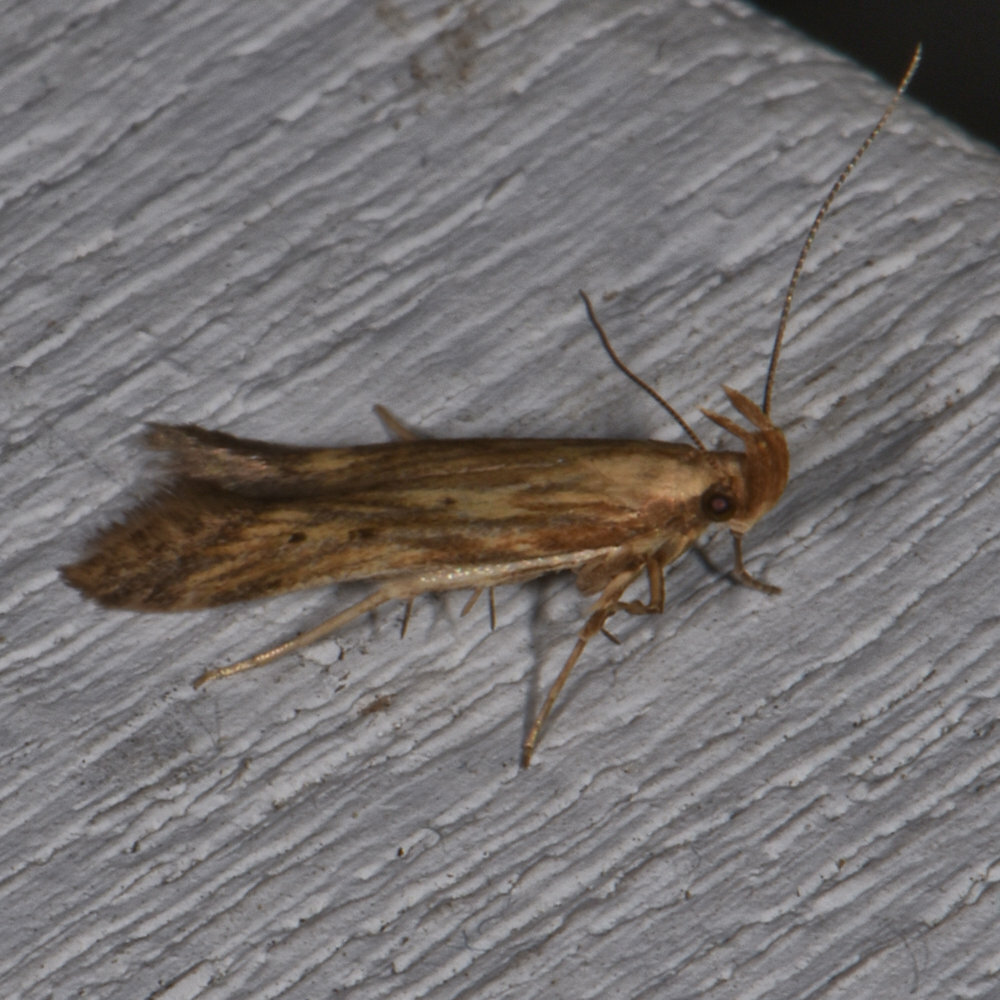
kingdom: Animalia
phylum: Arthropoda
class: Insecta
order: Lepidoptera
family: Gelechiidae
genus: Metzneria
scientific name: Metzneria lappella
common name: Burdock neb
